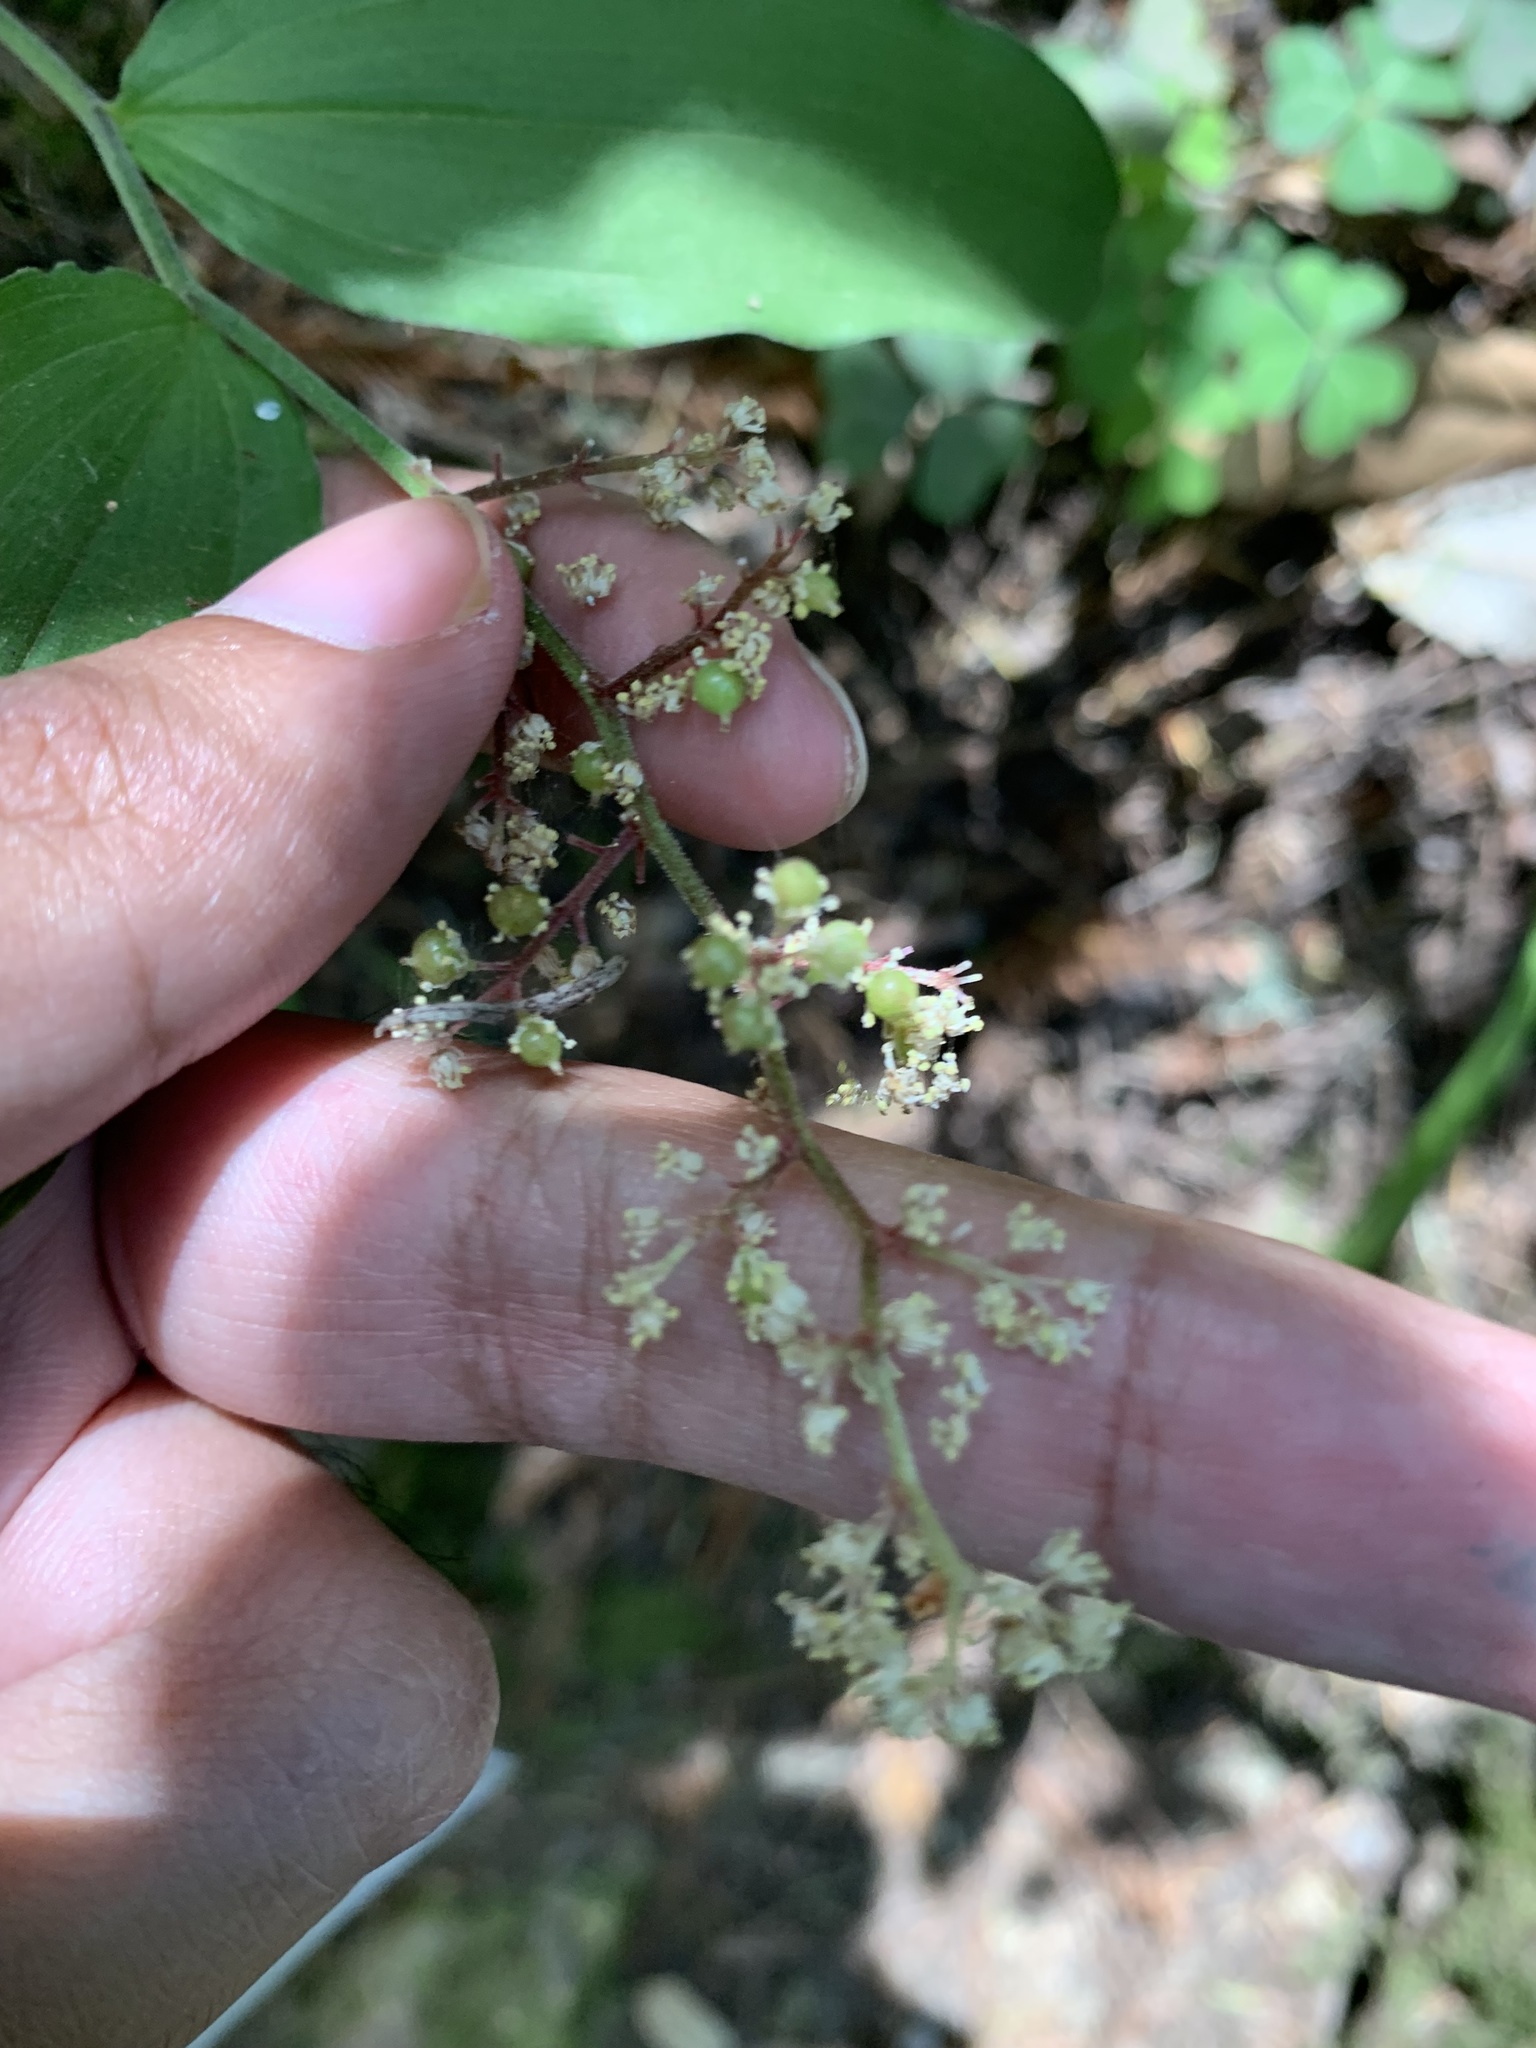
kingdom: Plantae
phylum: Tracheophyta
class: Liliopsida
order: Asparagales
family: Asparagaceae
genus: Maianthemum
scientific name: Maianthemum racemosum
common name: False spikenard
